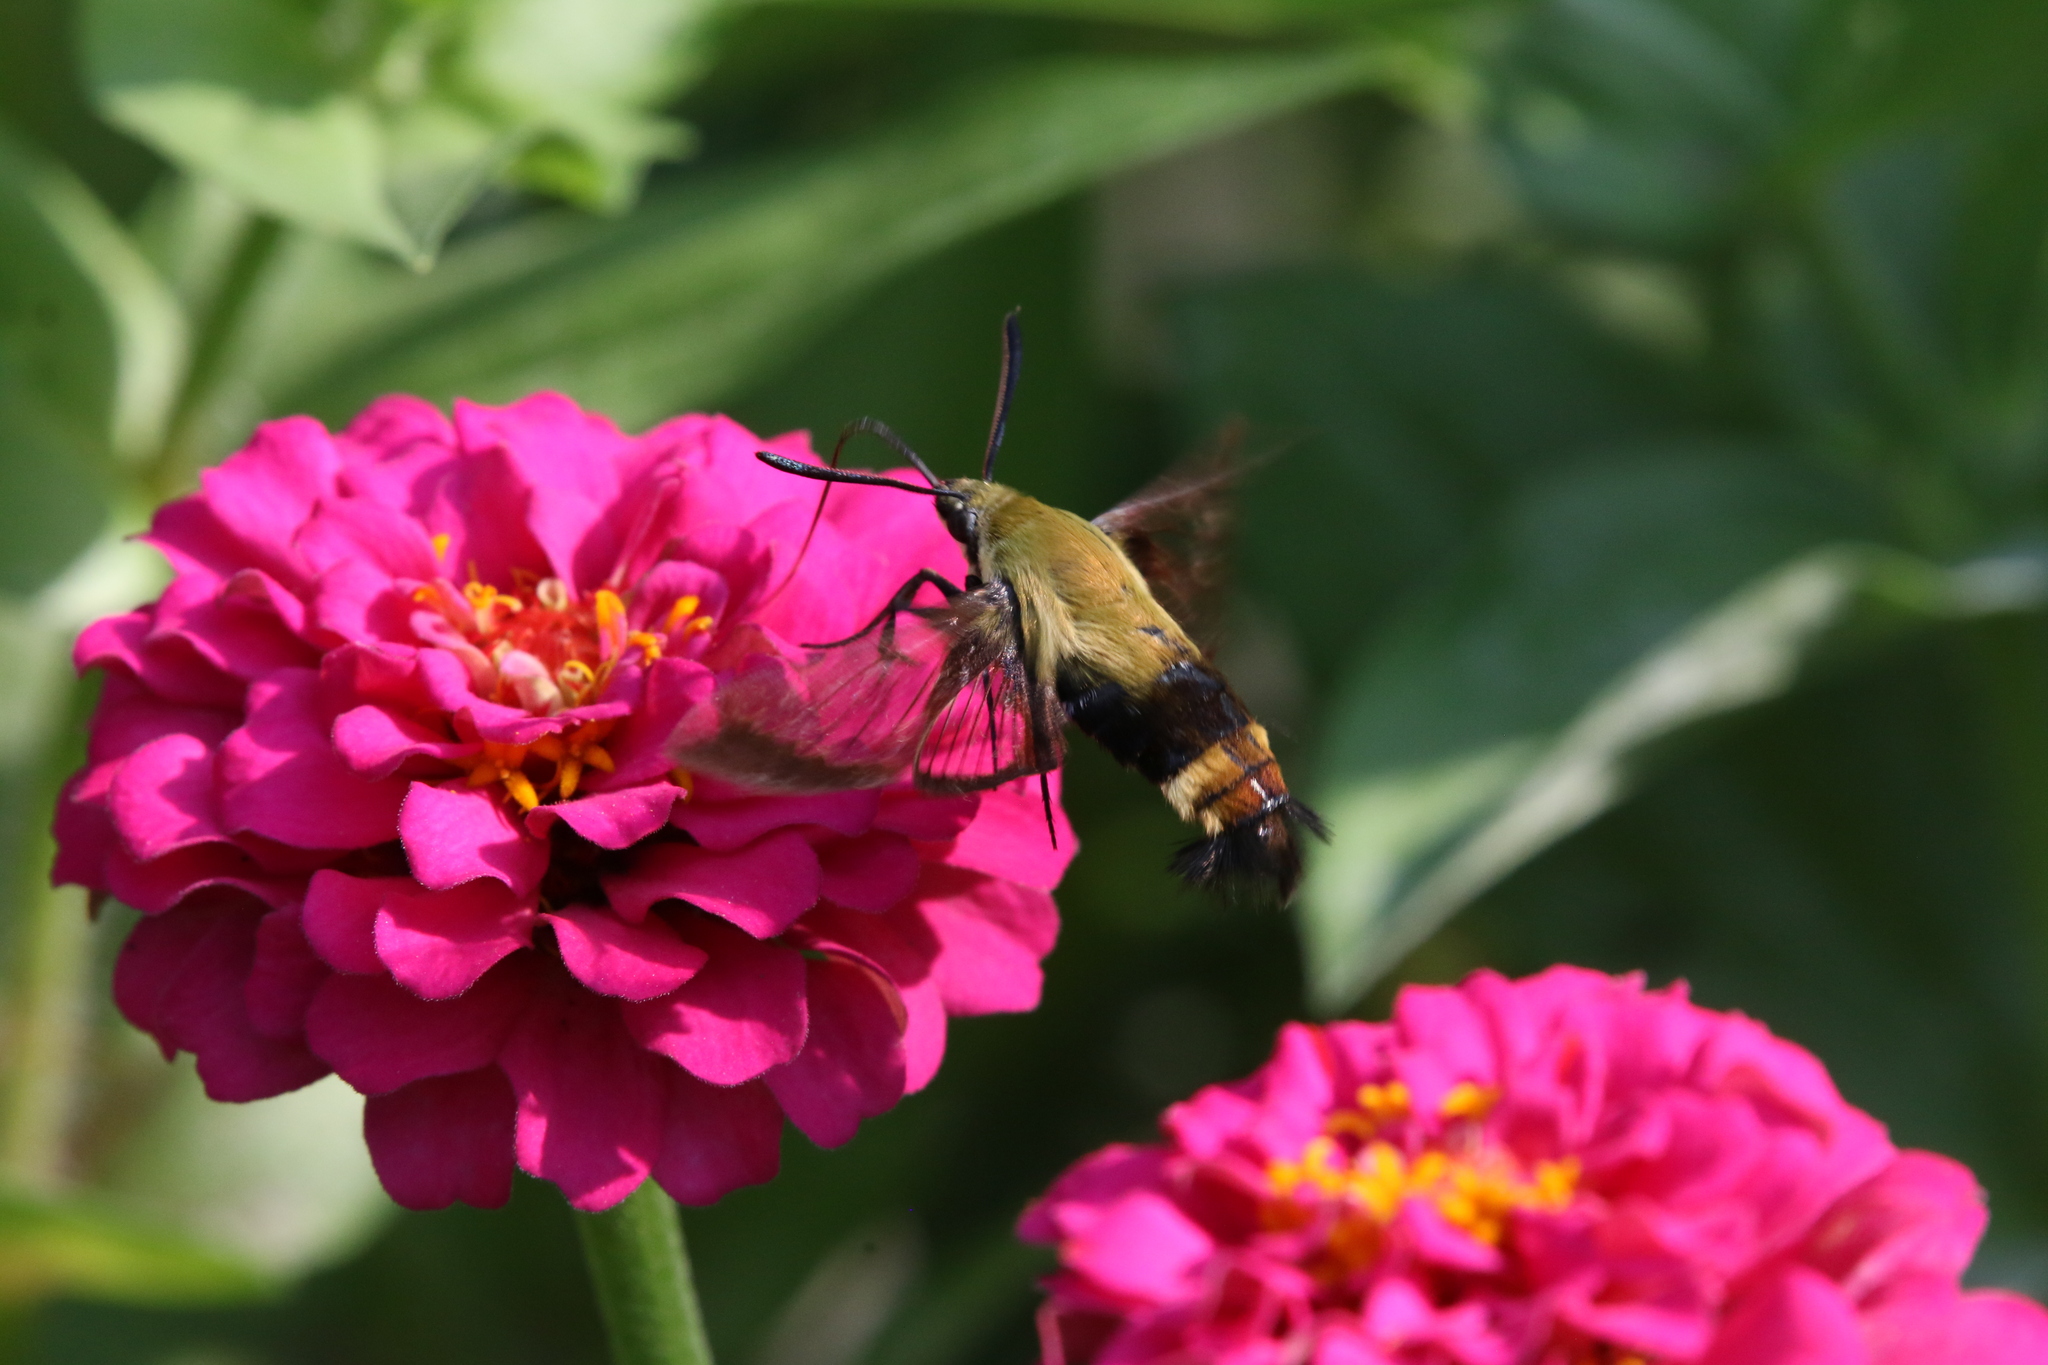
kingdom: Animalia
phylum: Arthropoda
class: Insecta
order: Lepidoptera
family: Sphingidae
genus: Hemaris
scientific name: Hemaris diffinis
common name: Bumblebee moth
